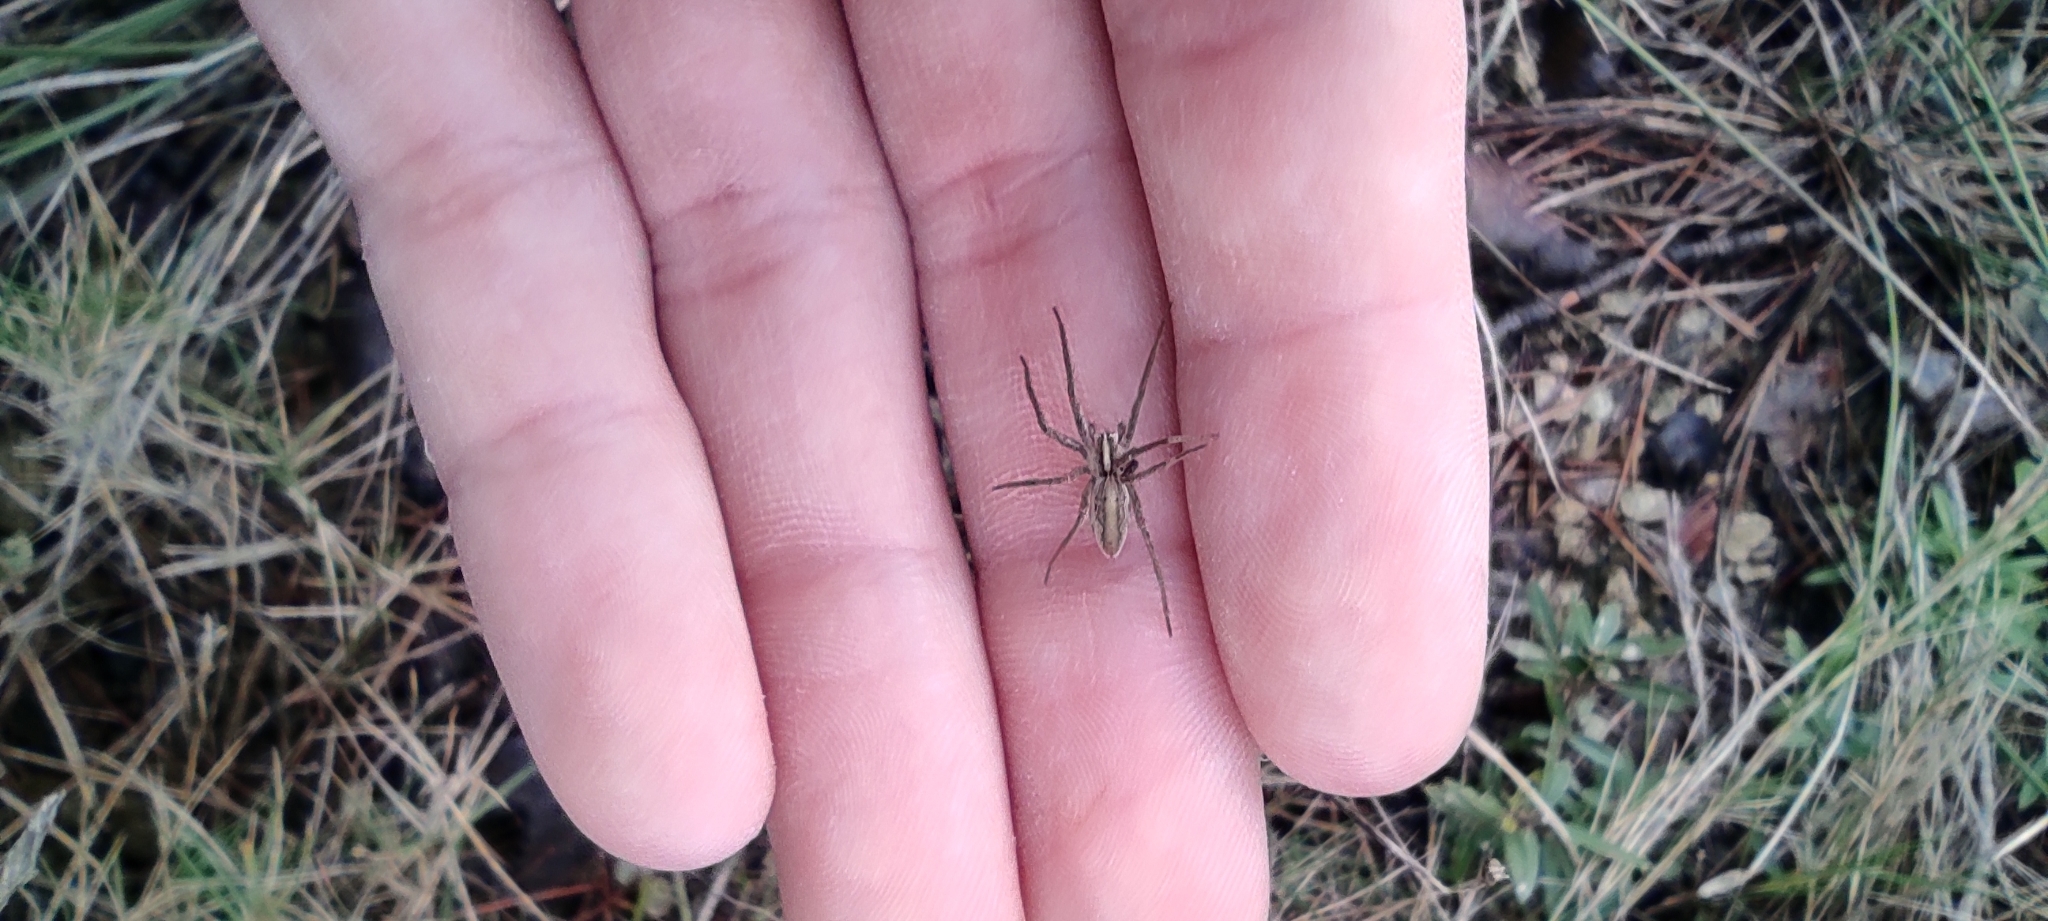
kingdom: Animalia
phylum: Arthropoda
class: Arachnida
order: Araneae
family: Pisauridae
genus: Pisaura
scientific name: Pisaura
